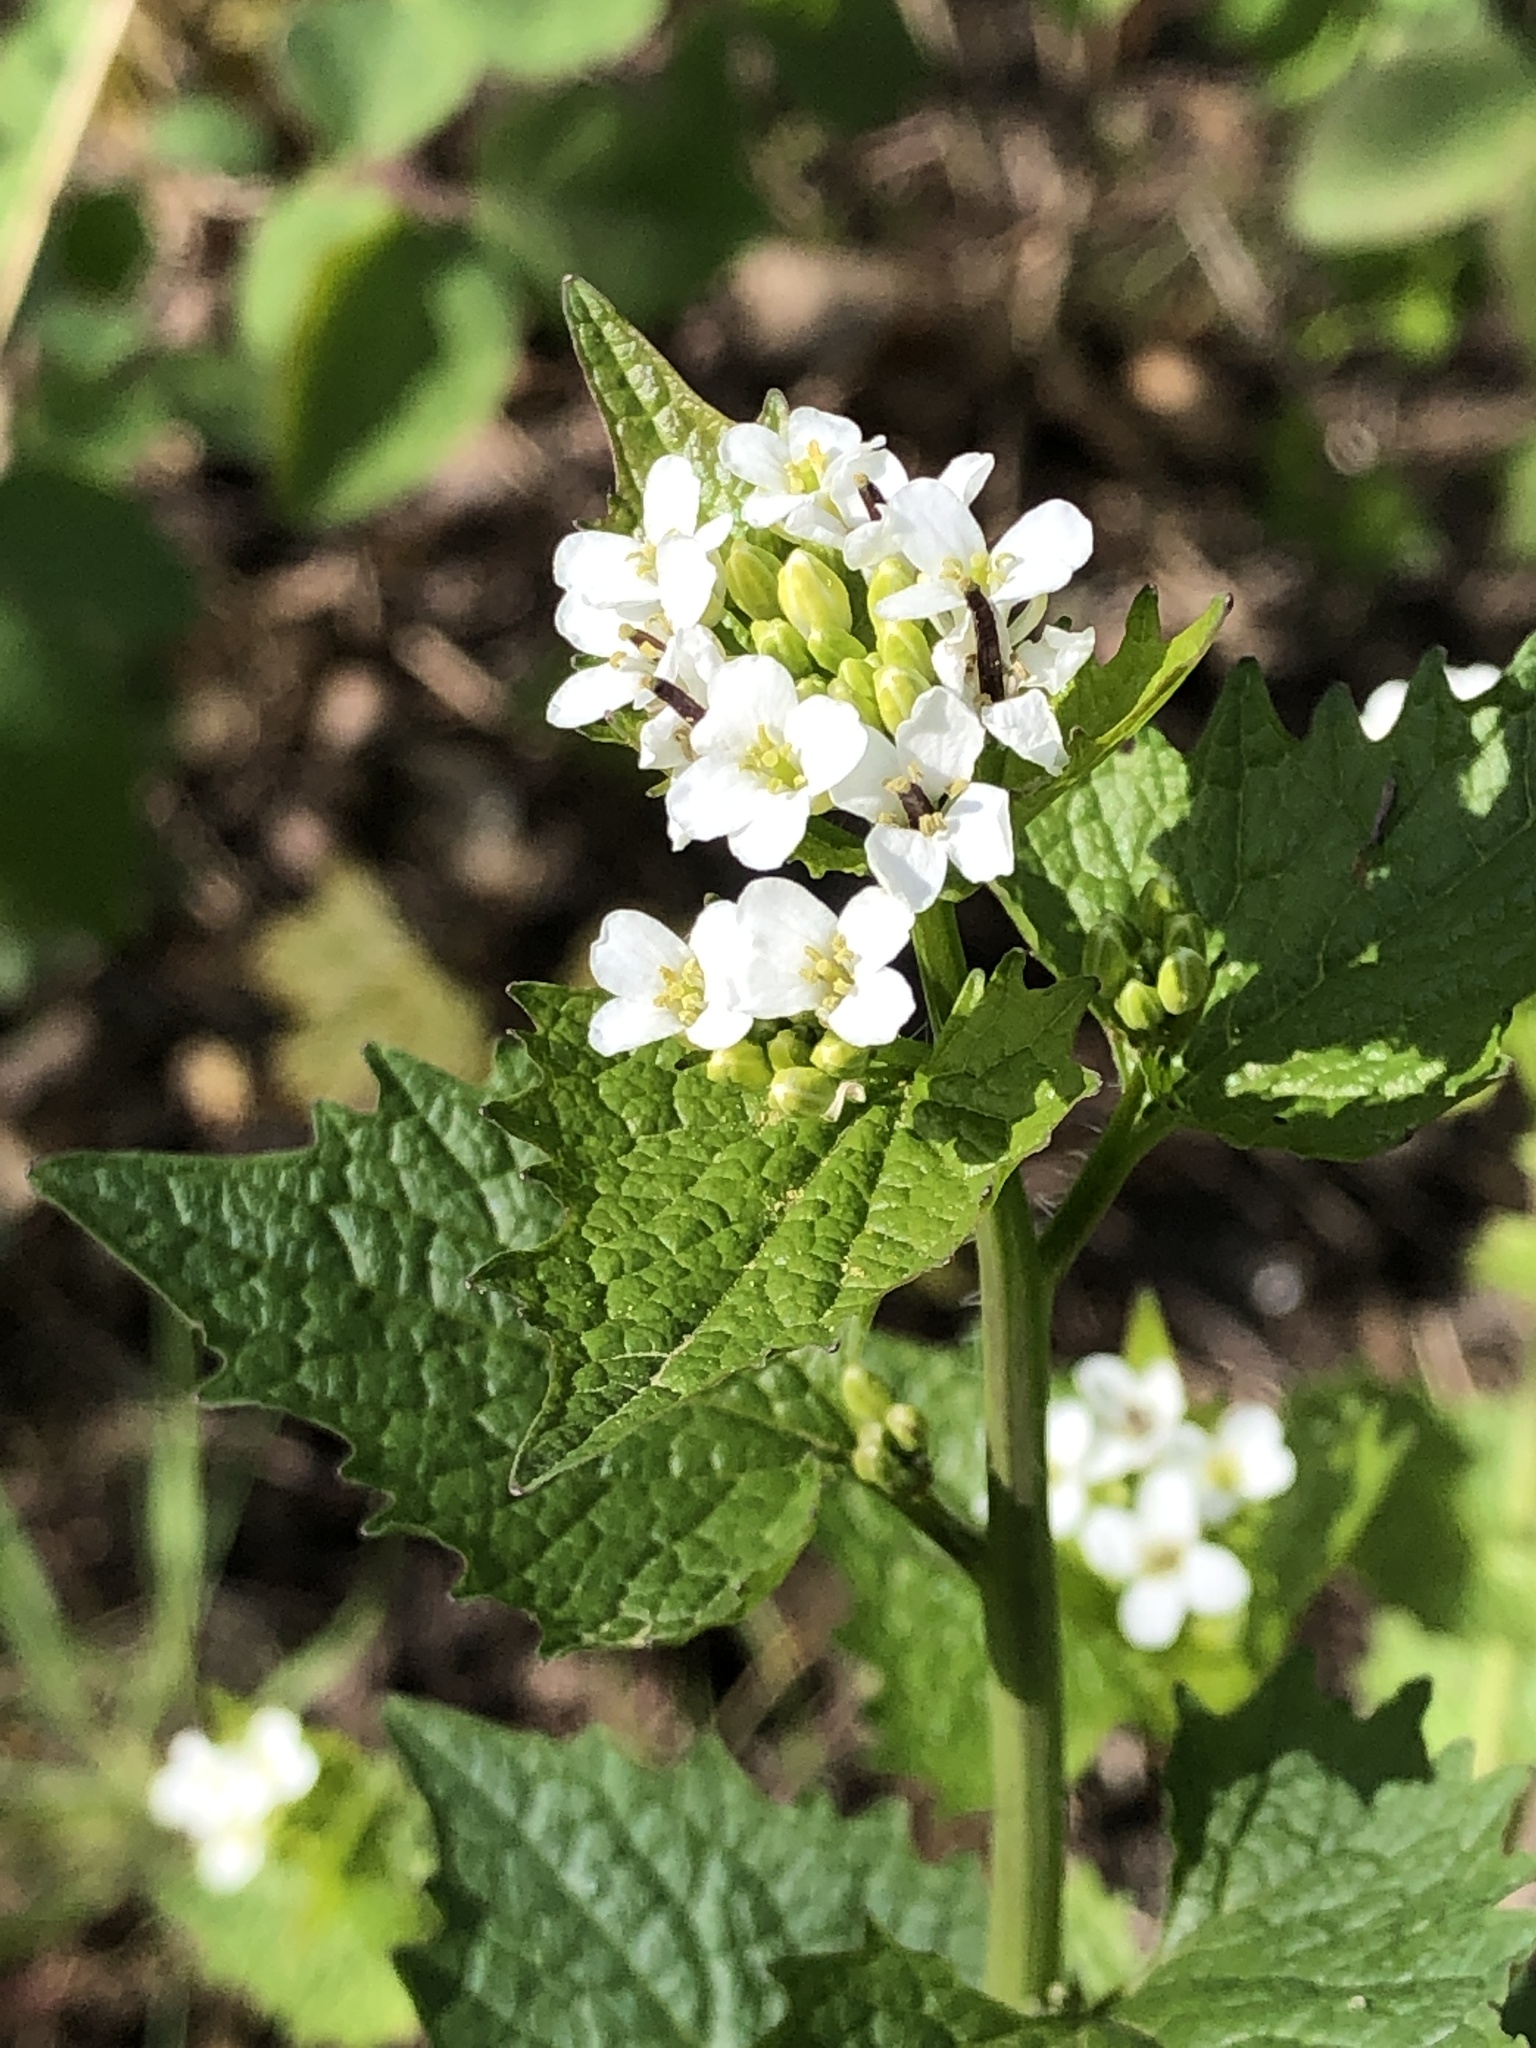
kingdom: Plantae
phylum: Tracheophyta
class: Magnoliopsida
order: Brassicales
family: Brassicaceae
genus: Alliaria
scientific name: Alliaria petiolata
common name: Garlic mustard
